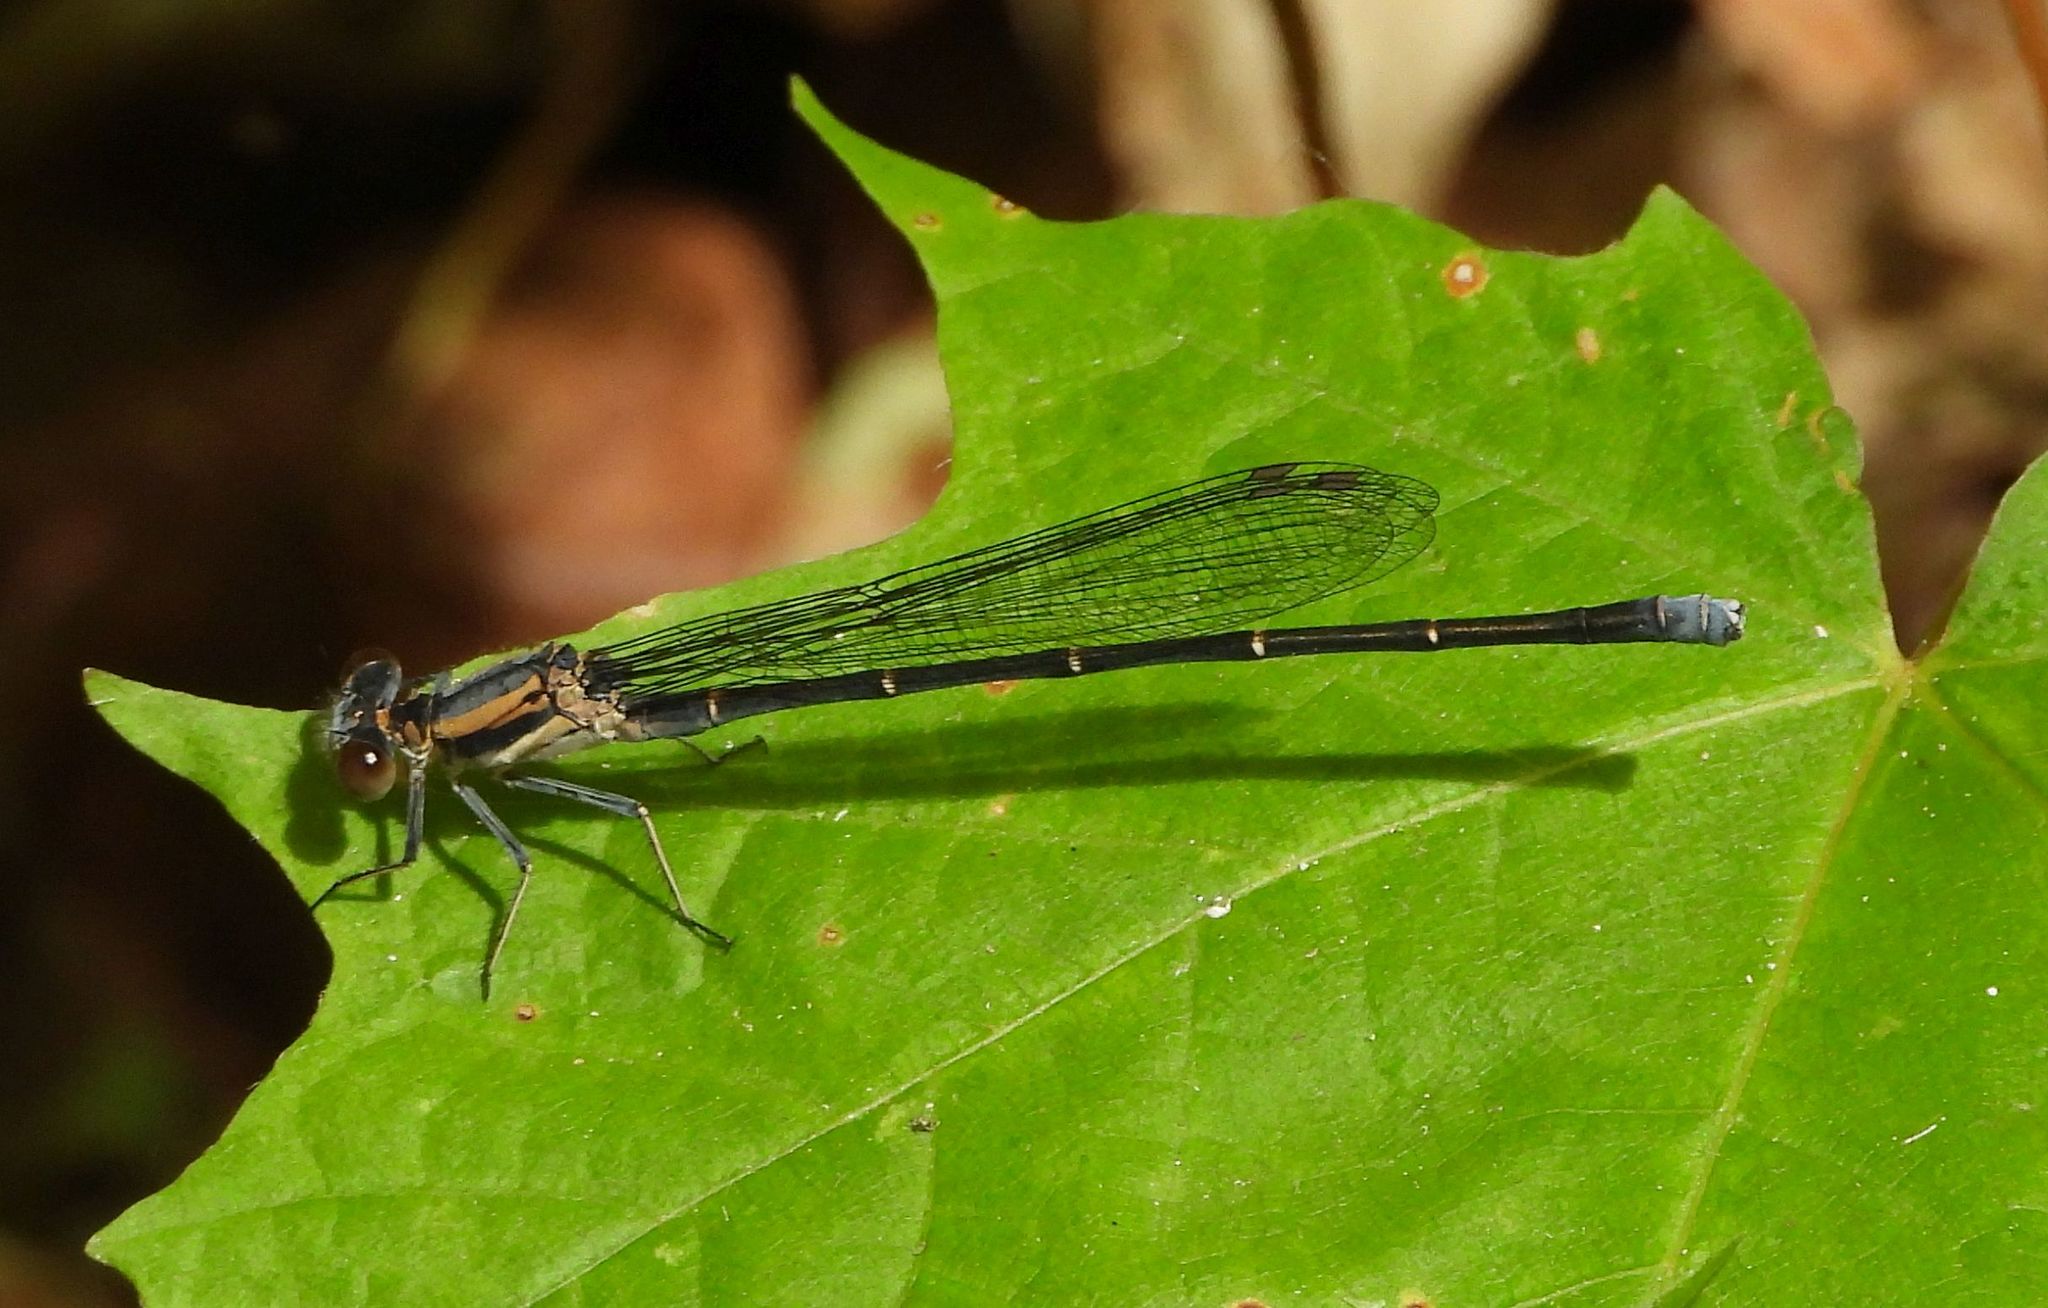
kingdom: Animalia
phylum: Arthropoda
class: Insecta
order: Odonata
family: Coenagrionidae
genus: Argia
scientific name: Argia moesta
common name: Powdered dancer
